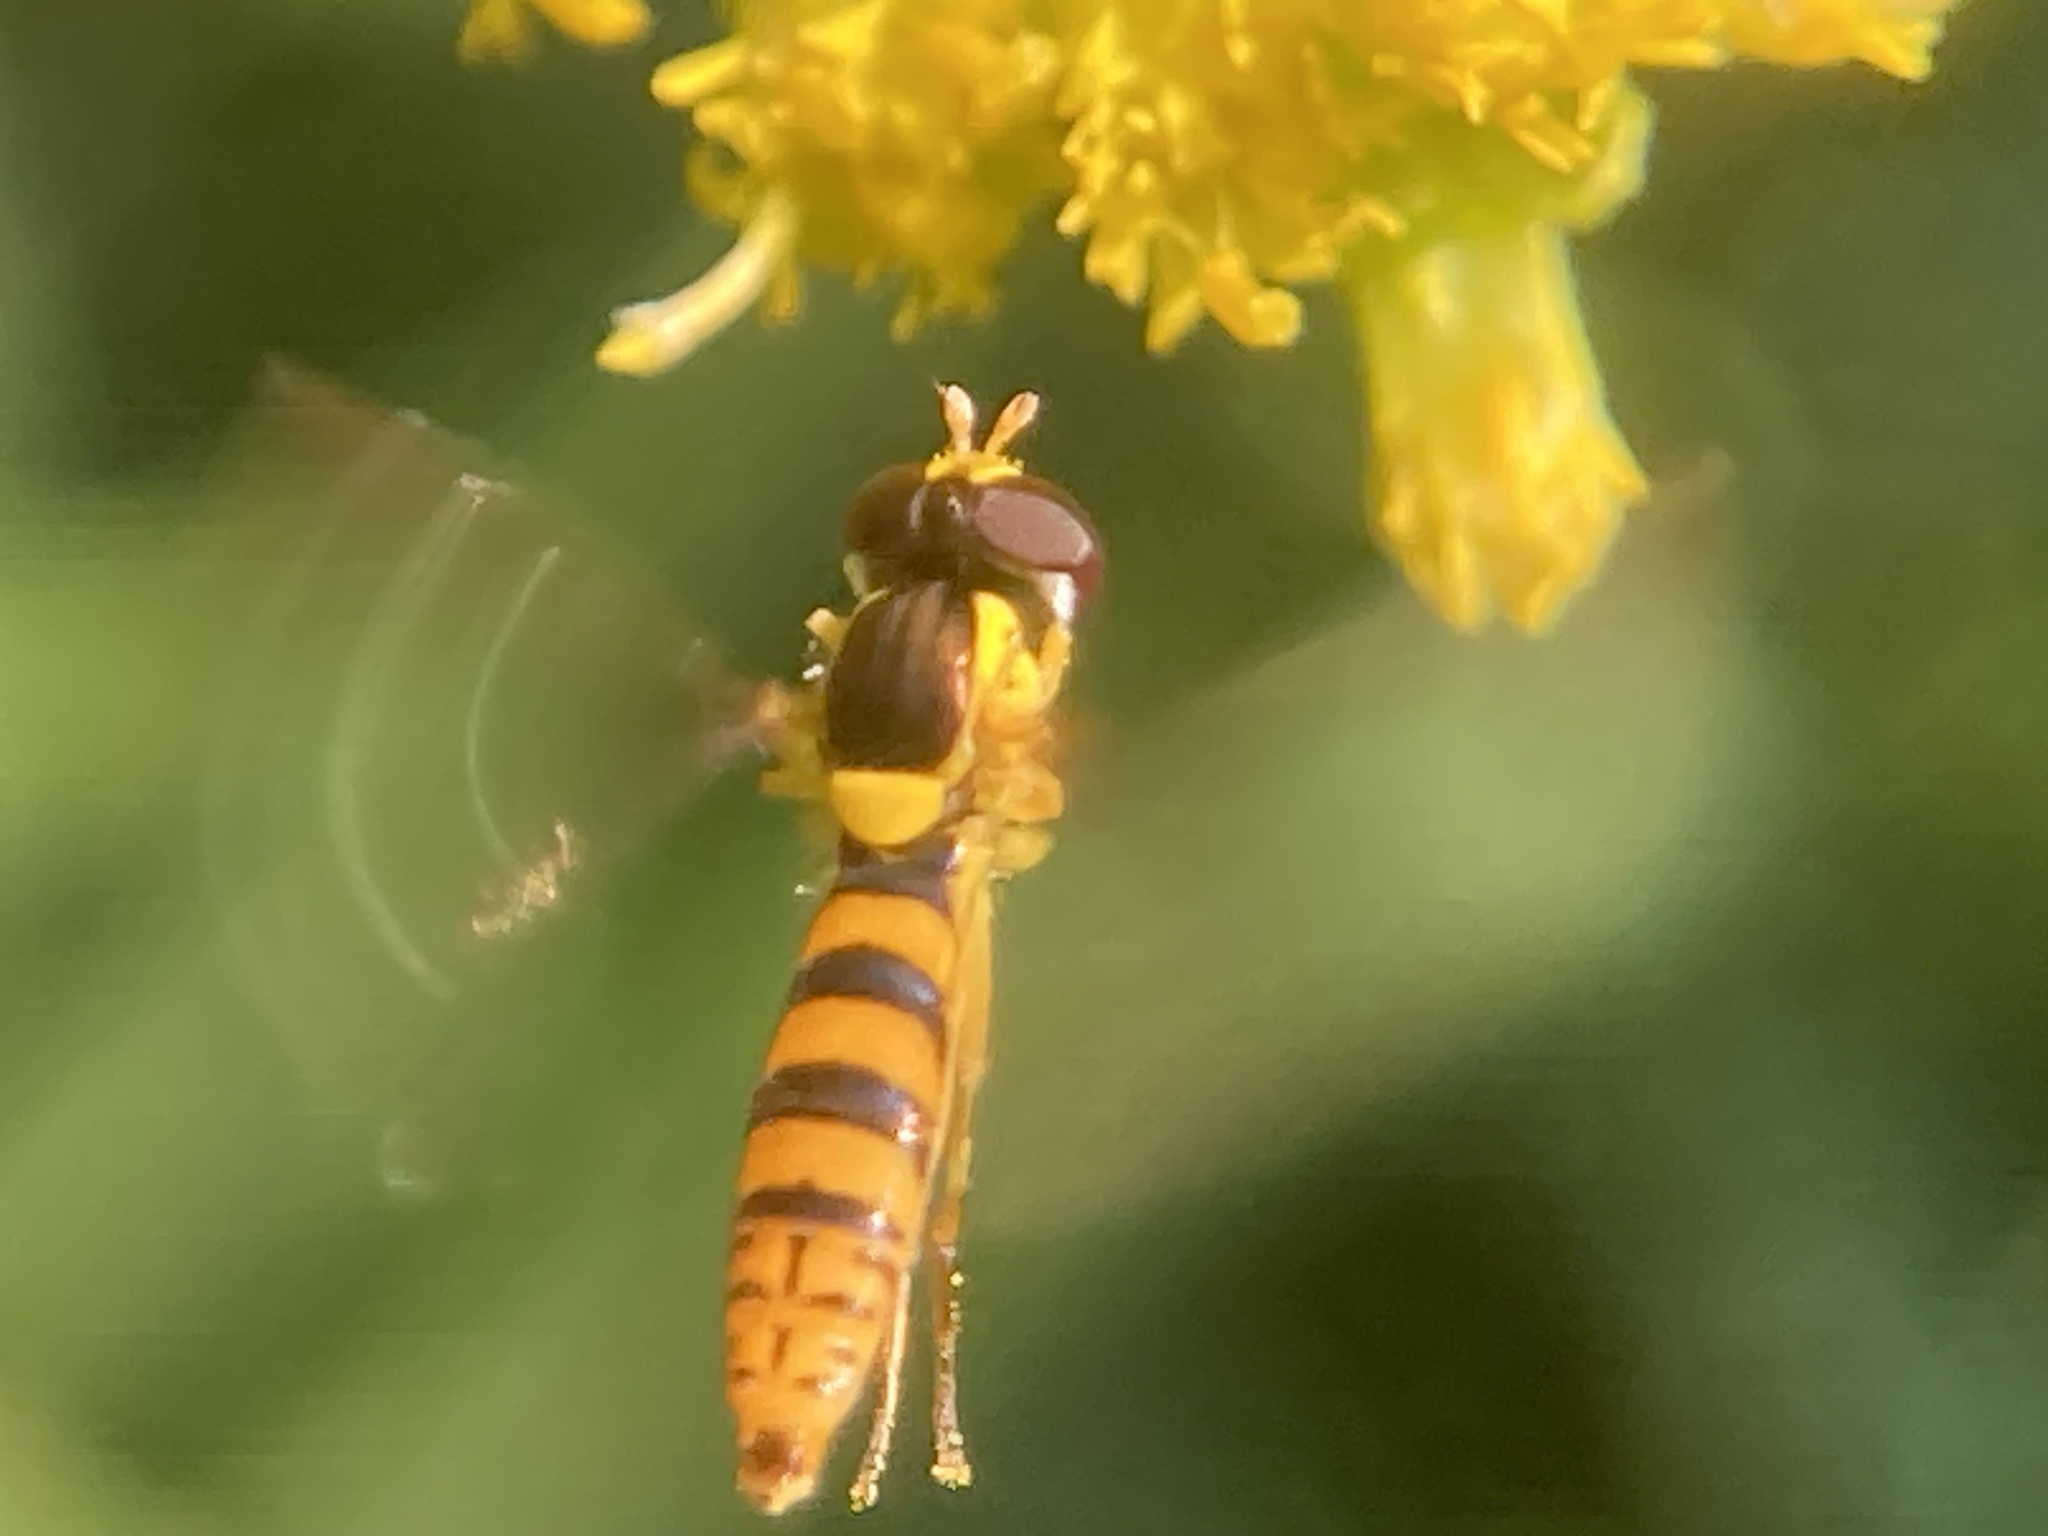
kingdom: Animalia
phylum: Arthropoda
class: Insecta
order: Diptera
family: Syrphidae
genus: Sphaerophoria
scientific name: Sphaerophoria
